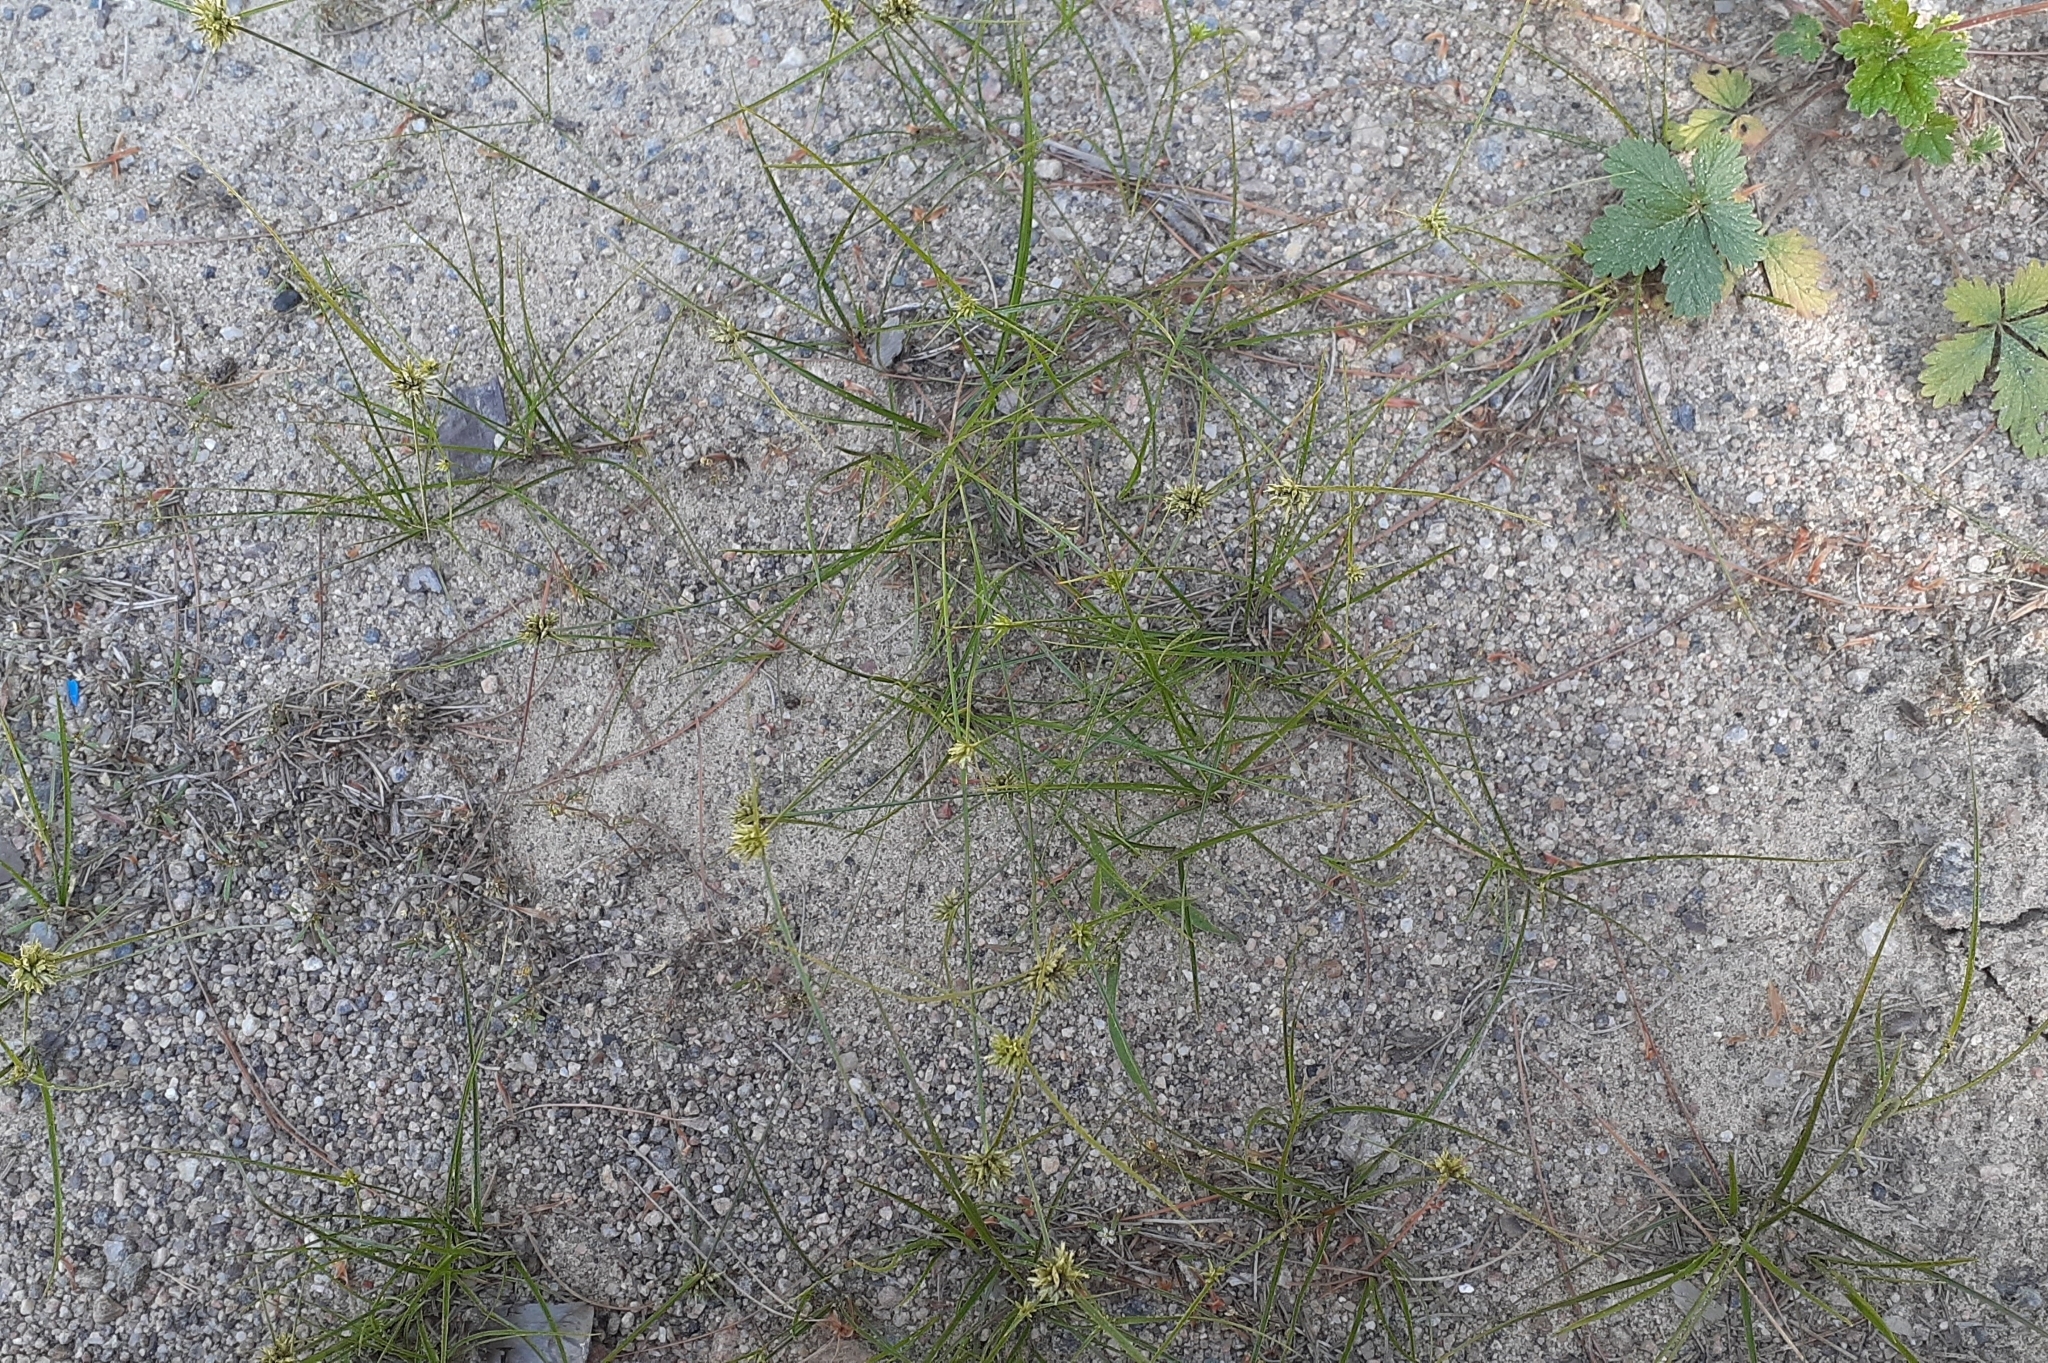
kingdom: Plantae
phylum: Tracheophyta
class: Liliopsida
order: Poales
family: Cyperaceae
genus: Cyperus
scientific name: Cyperus lupulinus
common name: Great plains flatsedge
